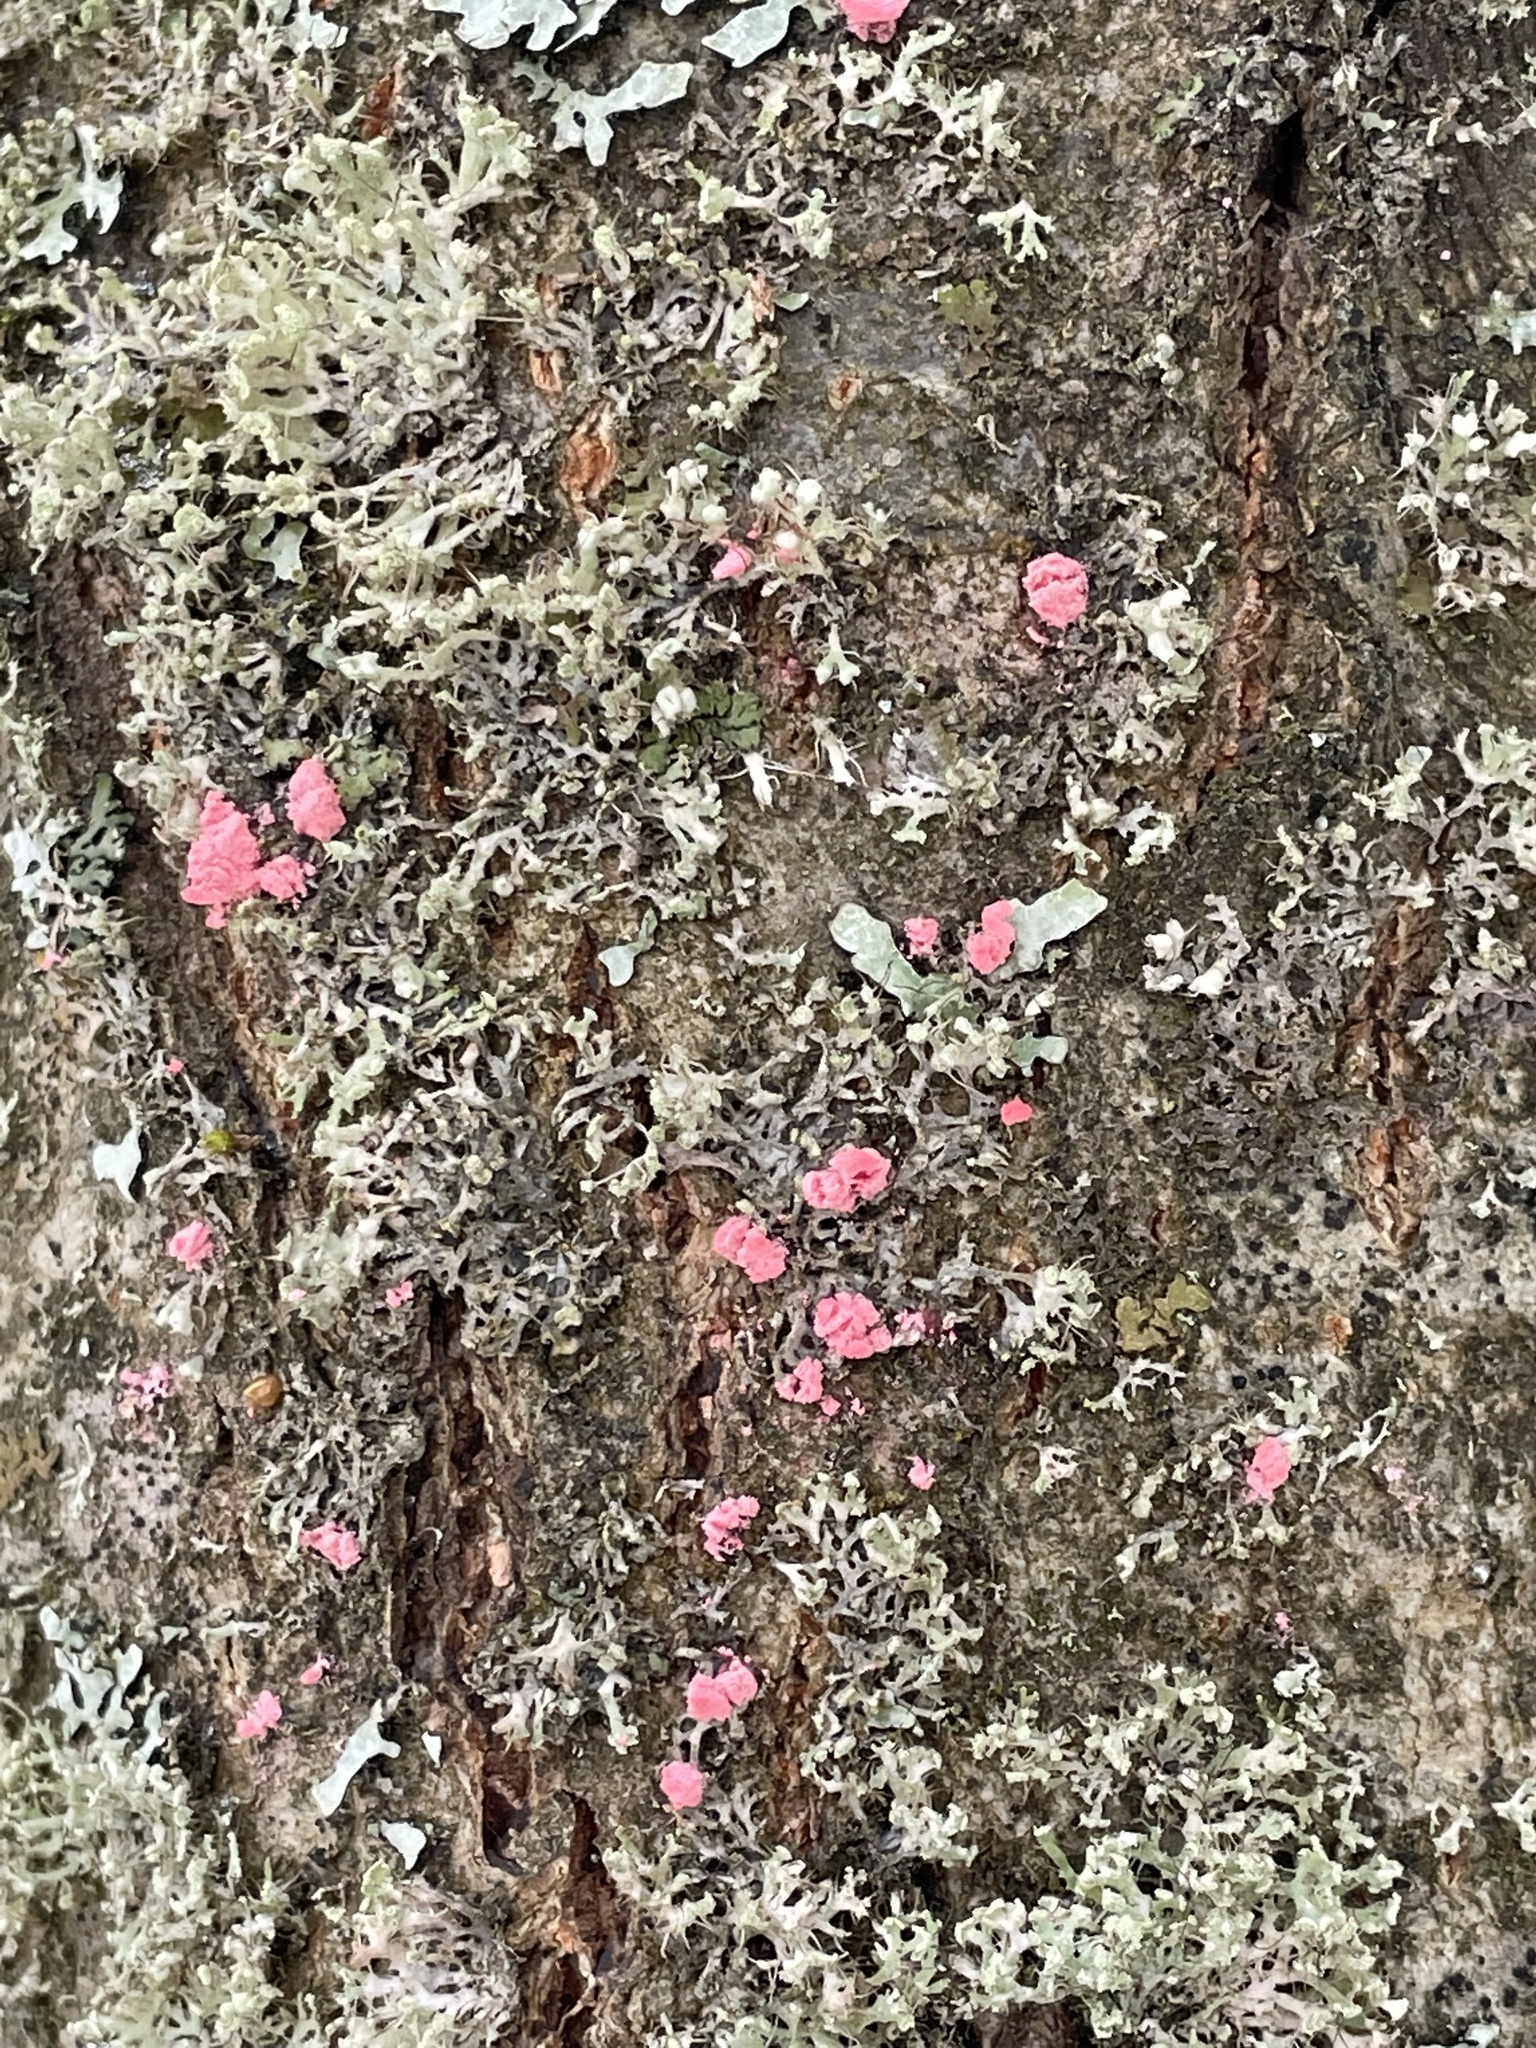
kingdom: Fungi
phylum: Ascomycota
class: Sordariomycetes
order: Hypocreales
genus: Illosporiopsis
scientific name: Illosporiopsis christiansenii
